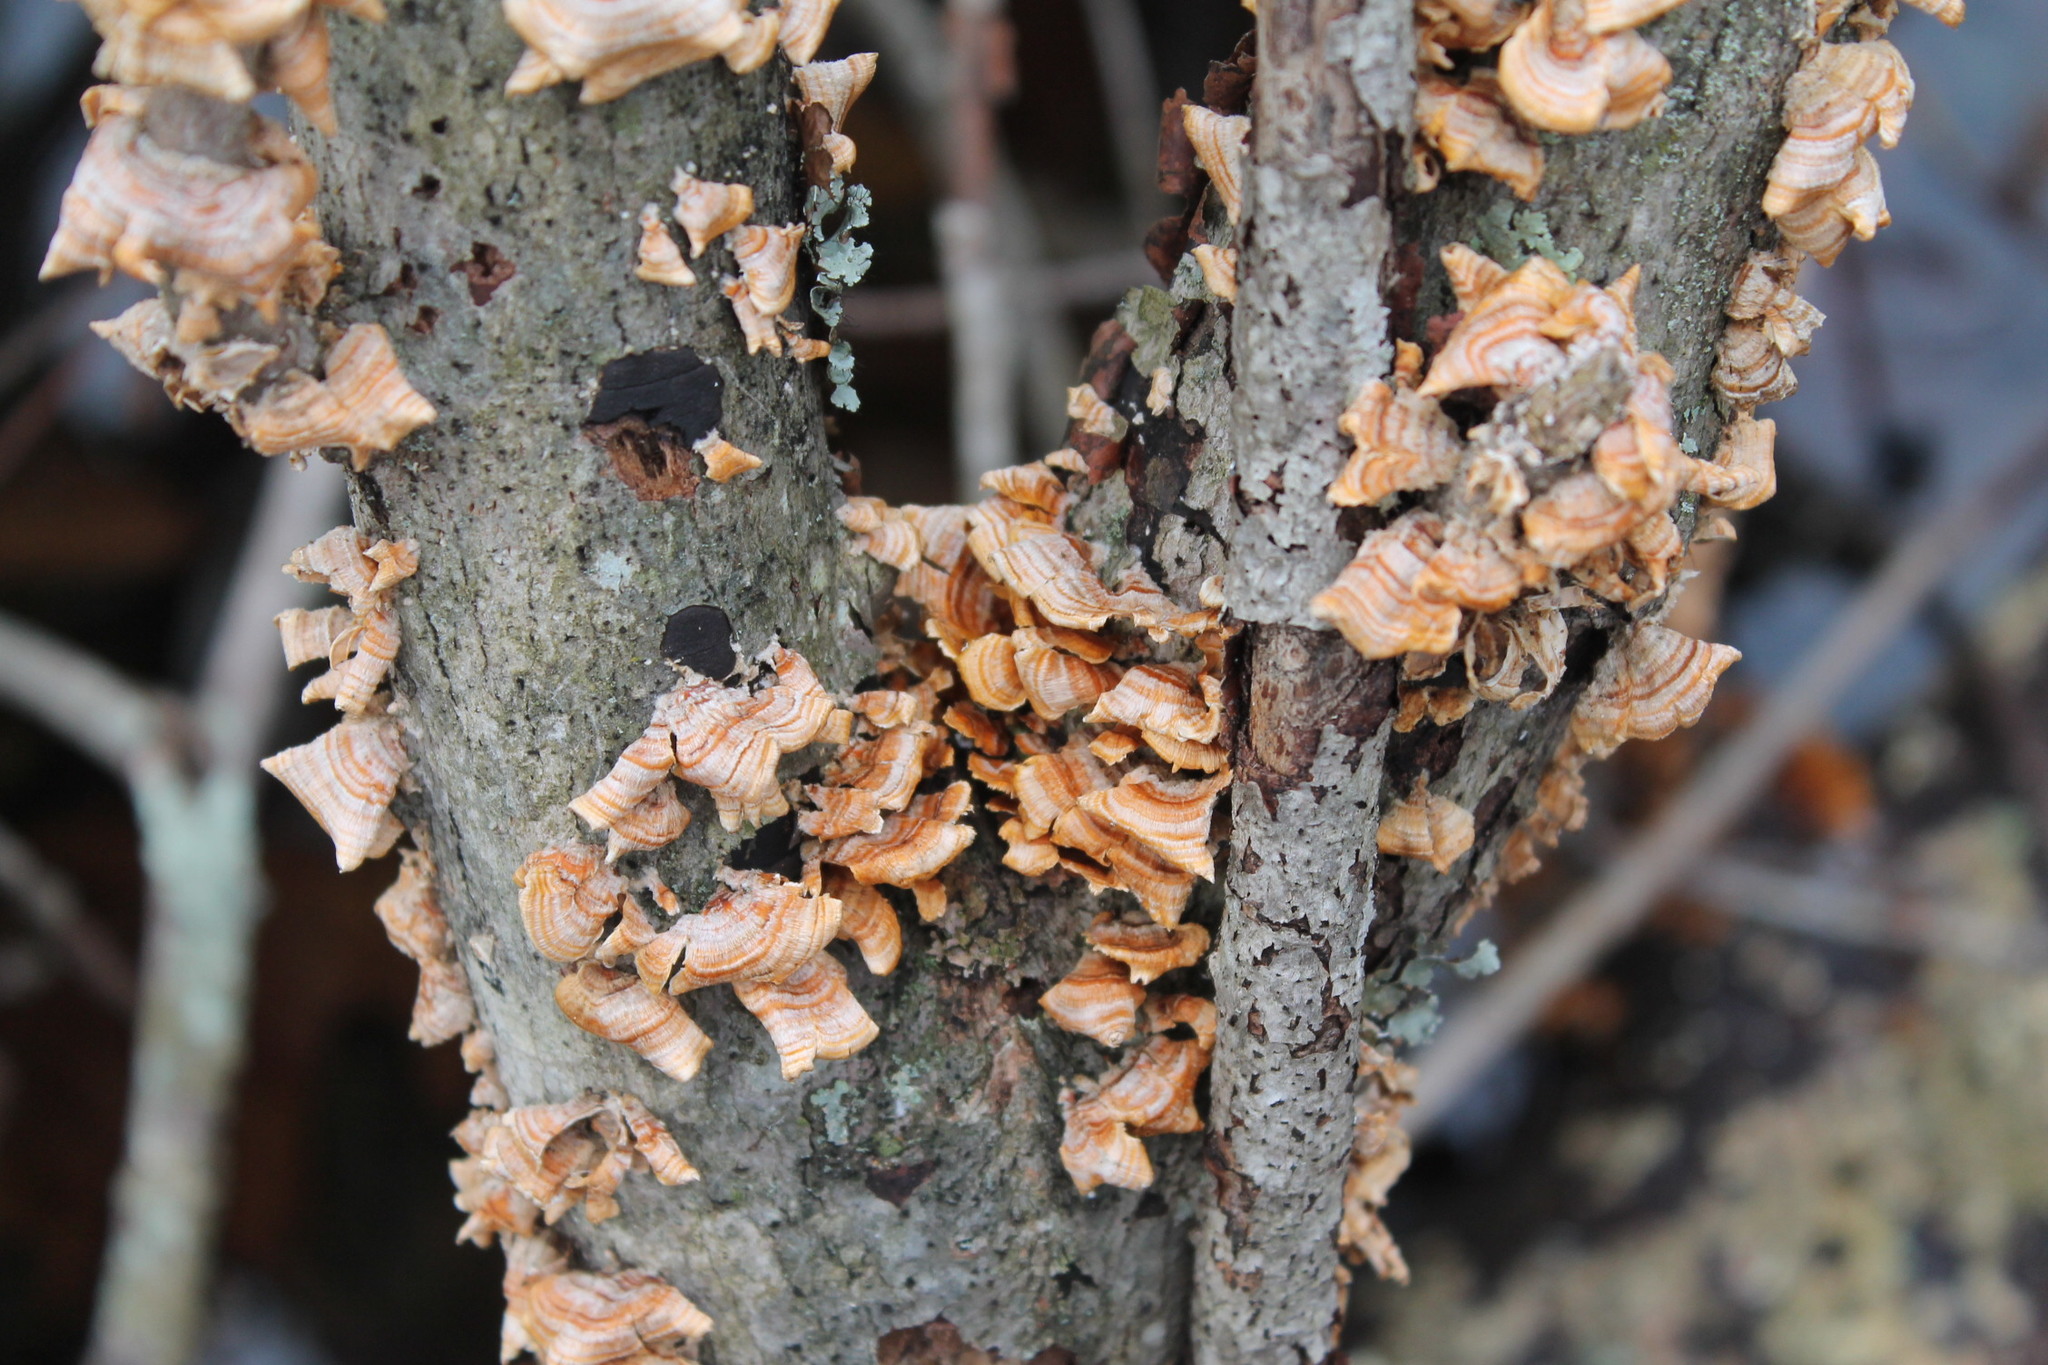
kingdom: Fungi
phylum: Basidiomycota
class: Agaricomycetes
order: Russulales
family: Stereaceae
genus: Stereum
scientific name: Stereum complicatum
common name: Crowded parchment
